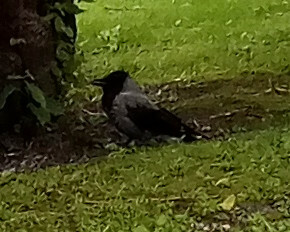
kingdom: Animalia
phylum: Chordata
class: Aves
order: Passeriformes
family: Corvidae
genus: Corvus
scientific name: Corvus cornix
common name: Hooded crow
